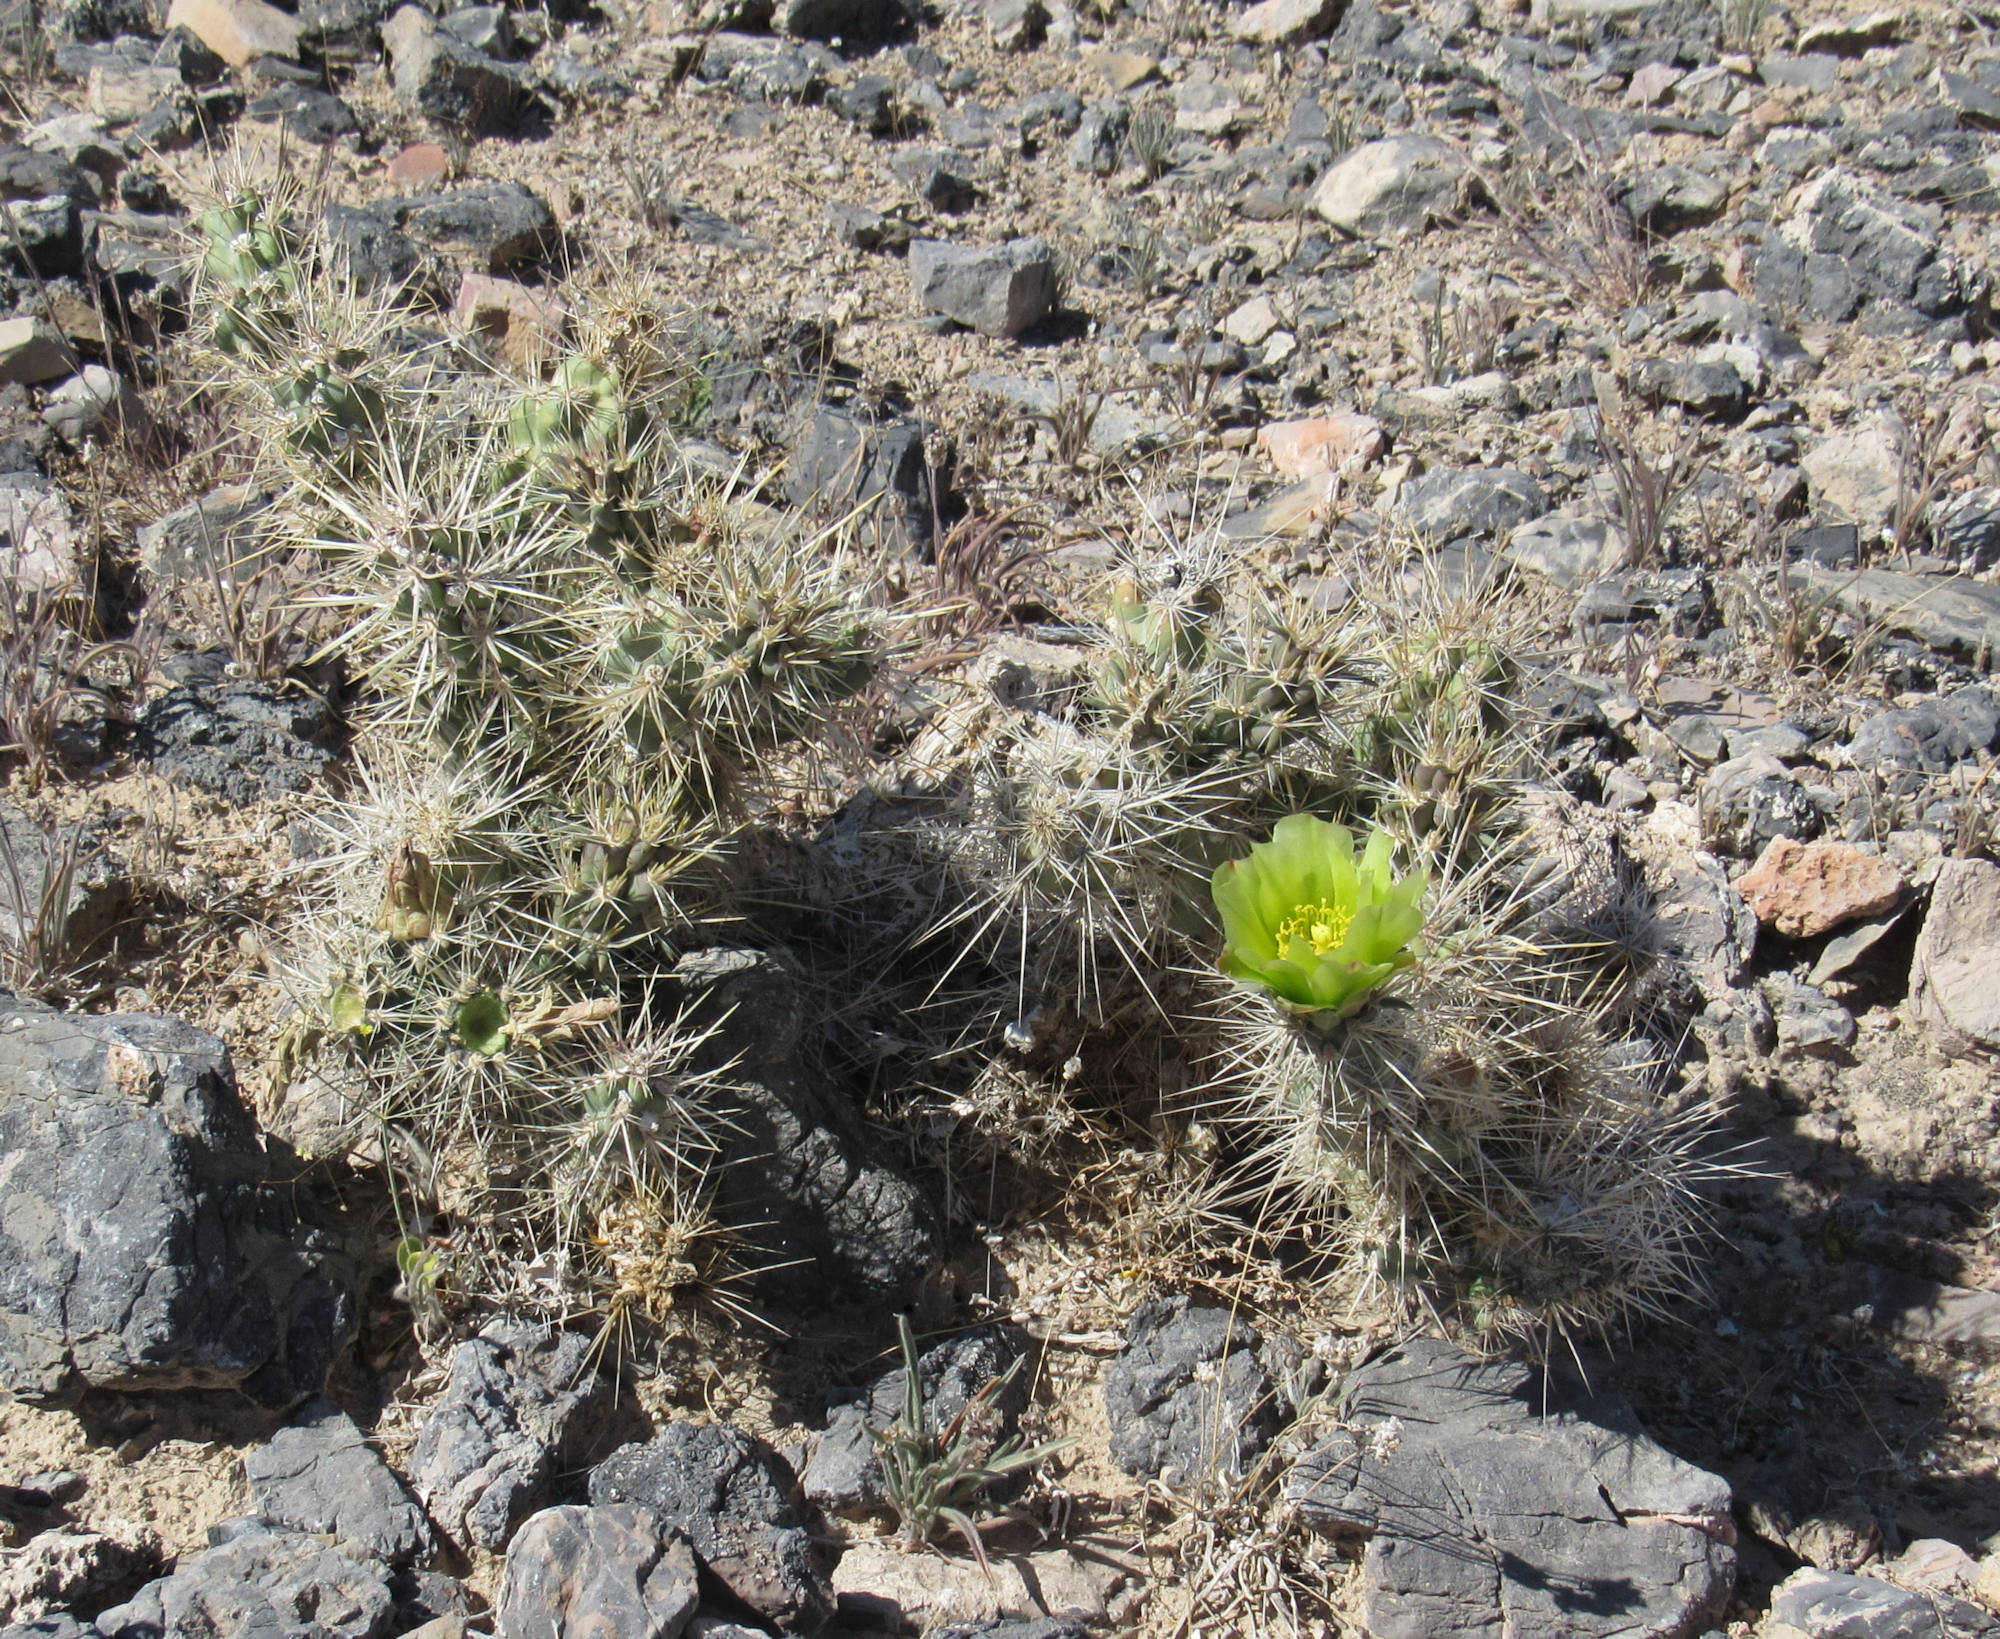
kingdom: Plantae
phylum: Tracheophyta
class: Magnoliopsida
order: Caryophyllales
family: Cactaceae
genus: Cylindropuntia
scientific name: Cylindropuntia echinocarpa
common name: Ground cholla
